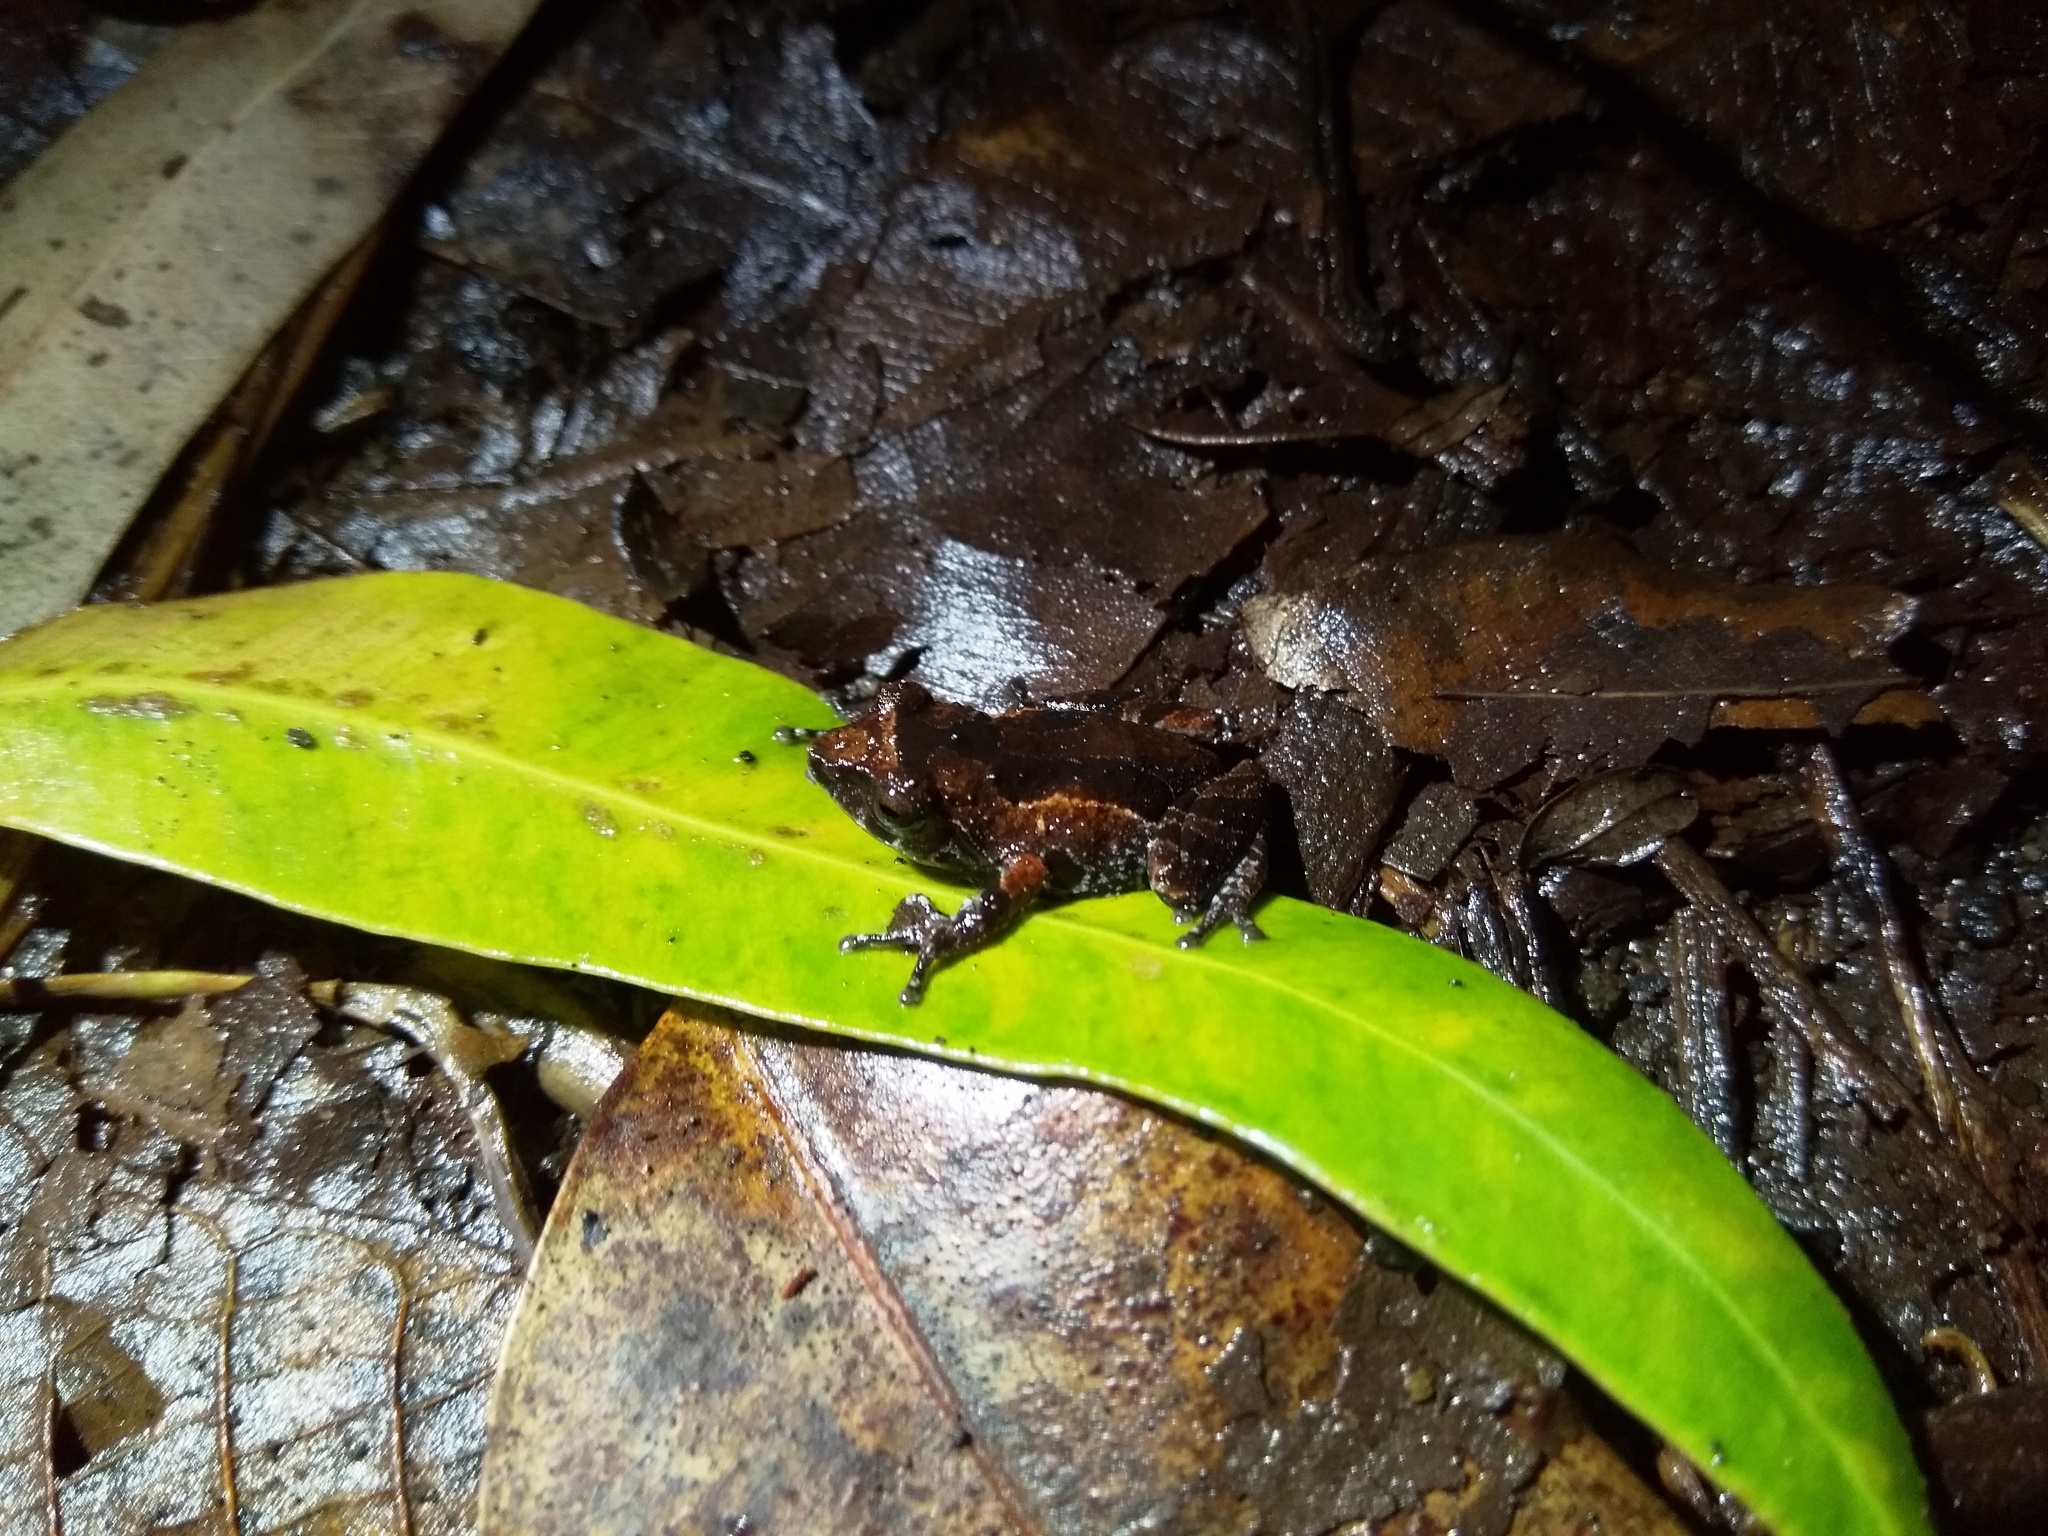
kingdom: Animalia
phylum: Chordata
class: Amphibia
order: Anura
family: Rhacophoridae
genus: Raorchestes
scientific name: Raorchestes griet
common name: Griet bush frog
